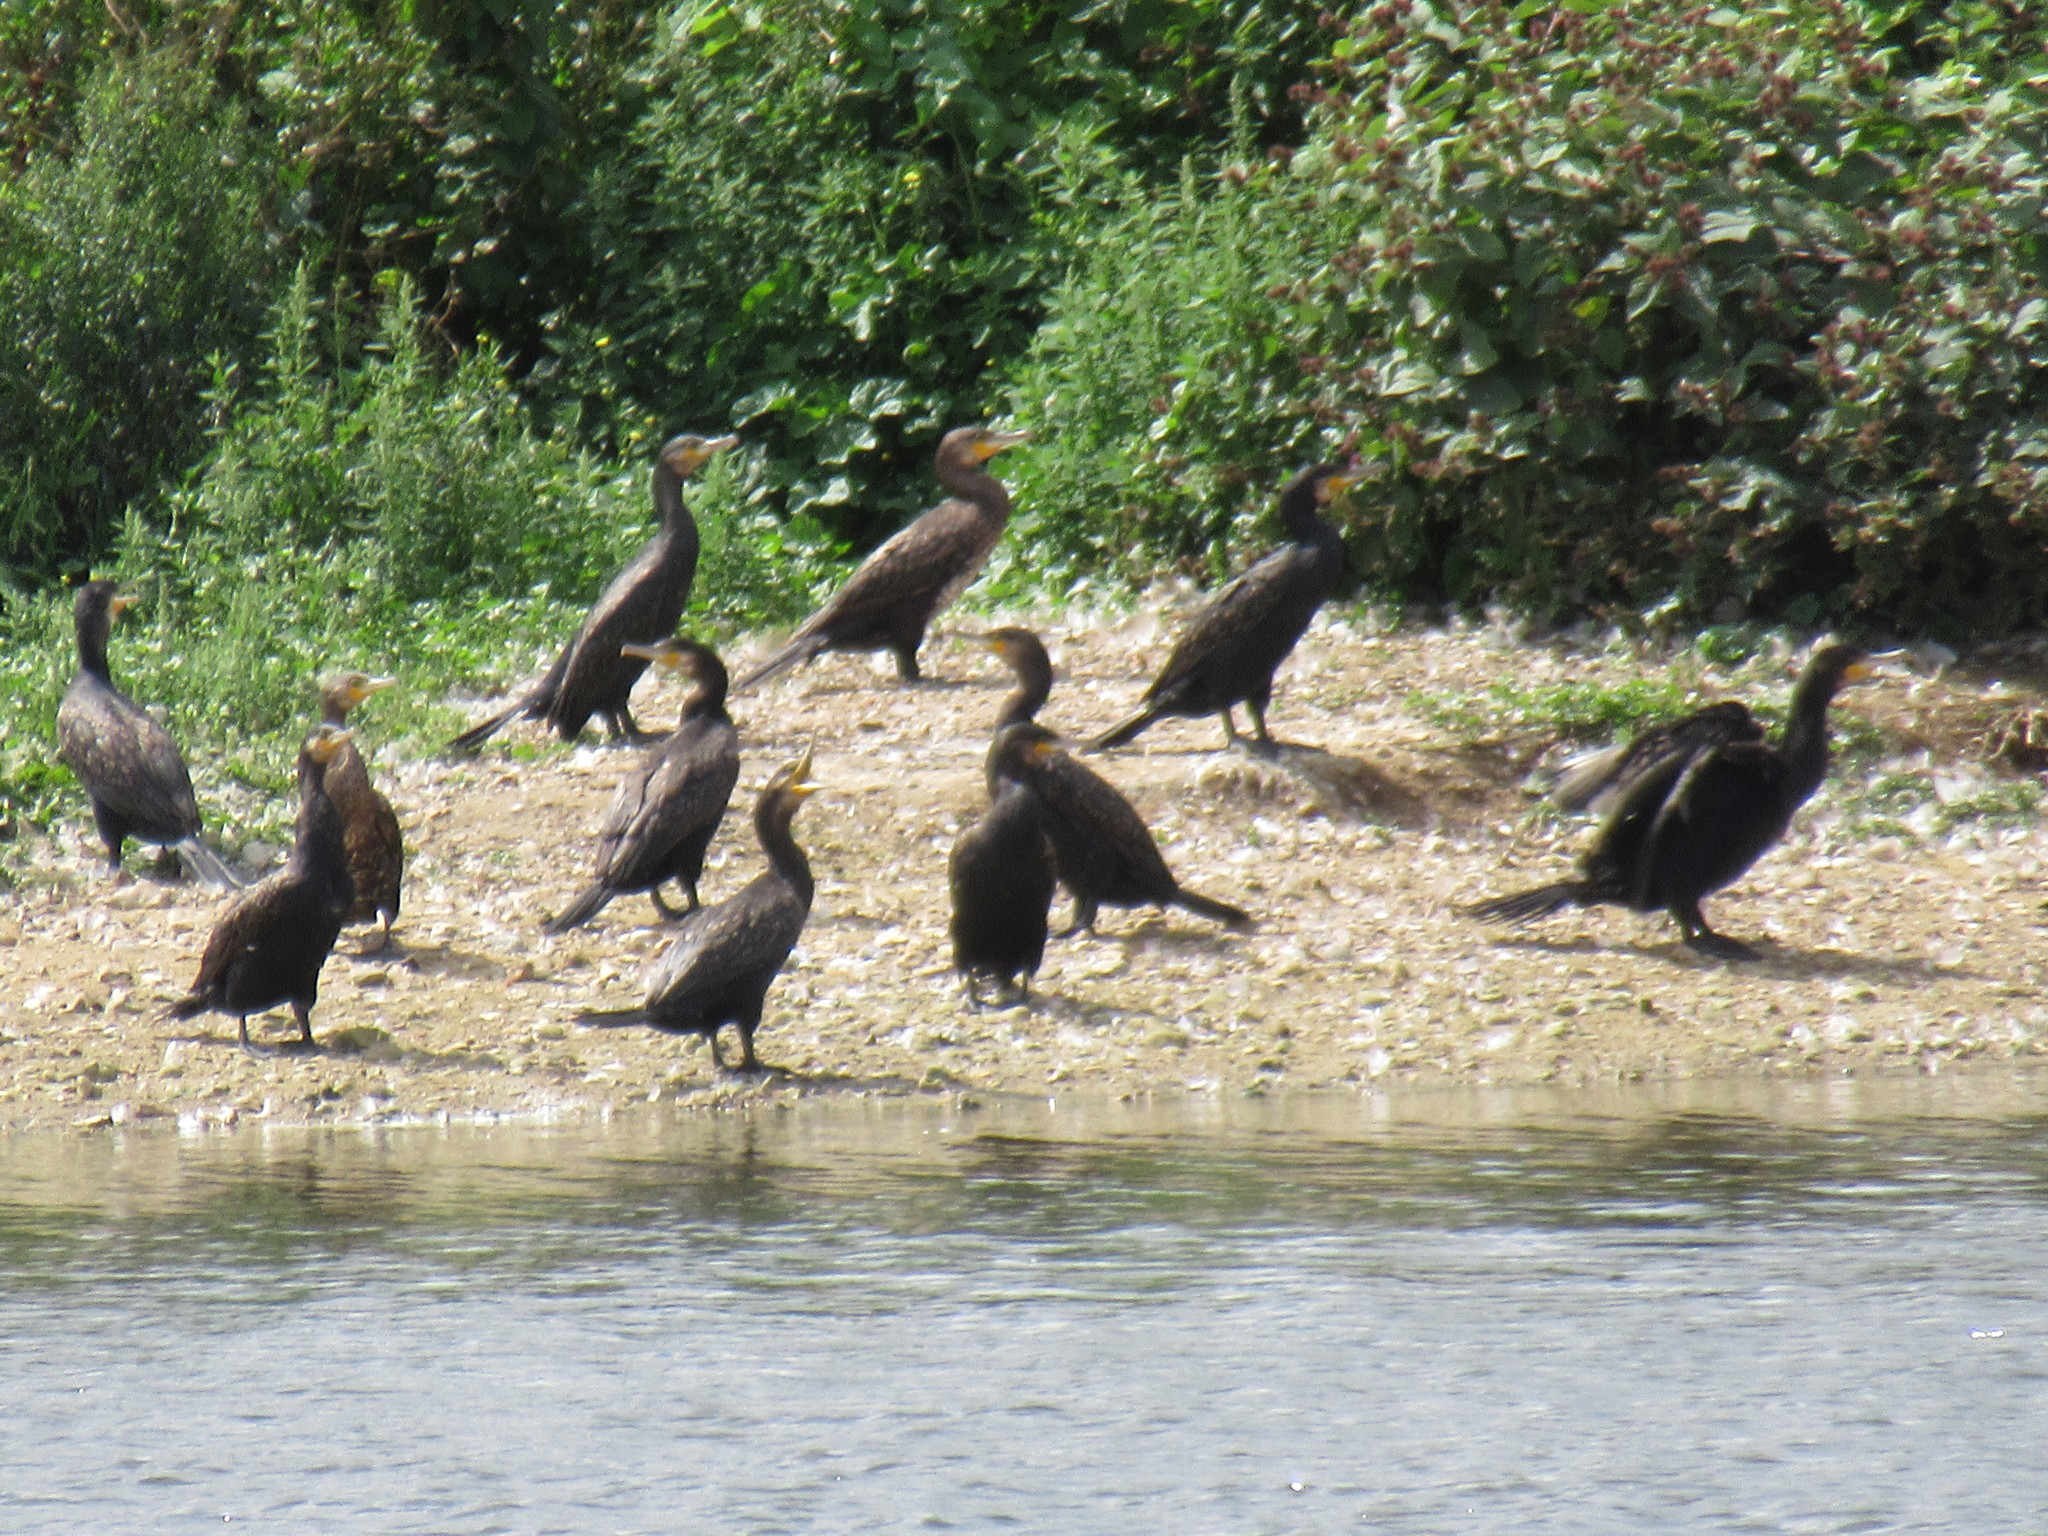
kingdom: Animalia
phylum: Chordata
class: Aves
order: Suliformes
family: Phalacrocoracidae
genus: Phalacrocorax
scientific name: Phalacrocorax carbo
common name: Great cormorant
